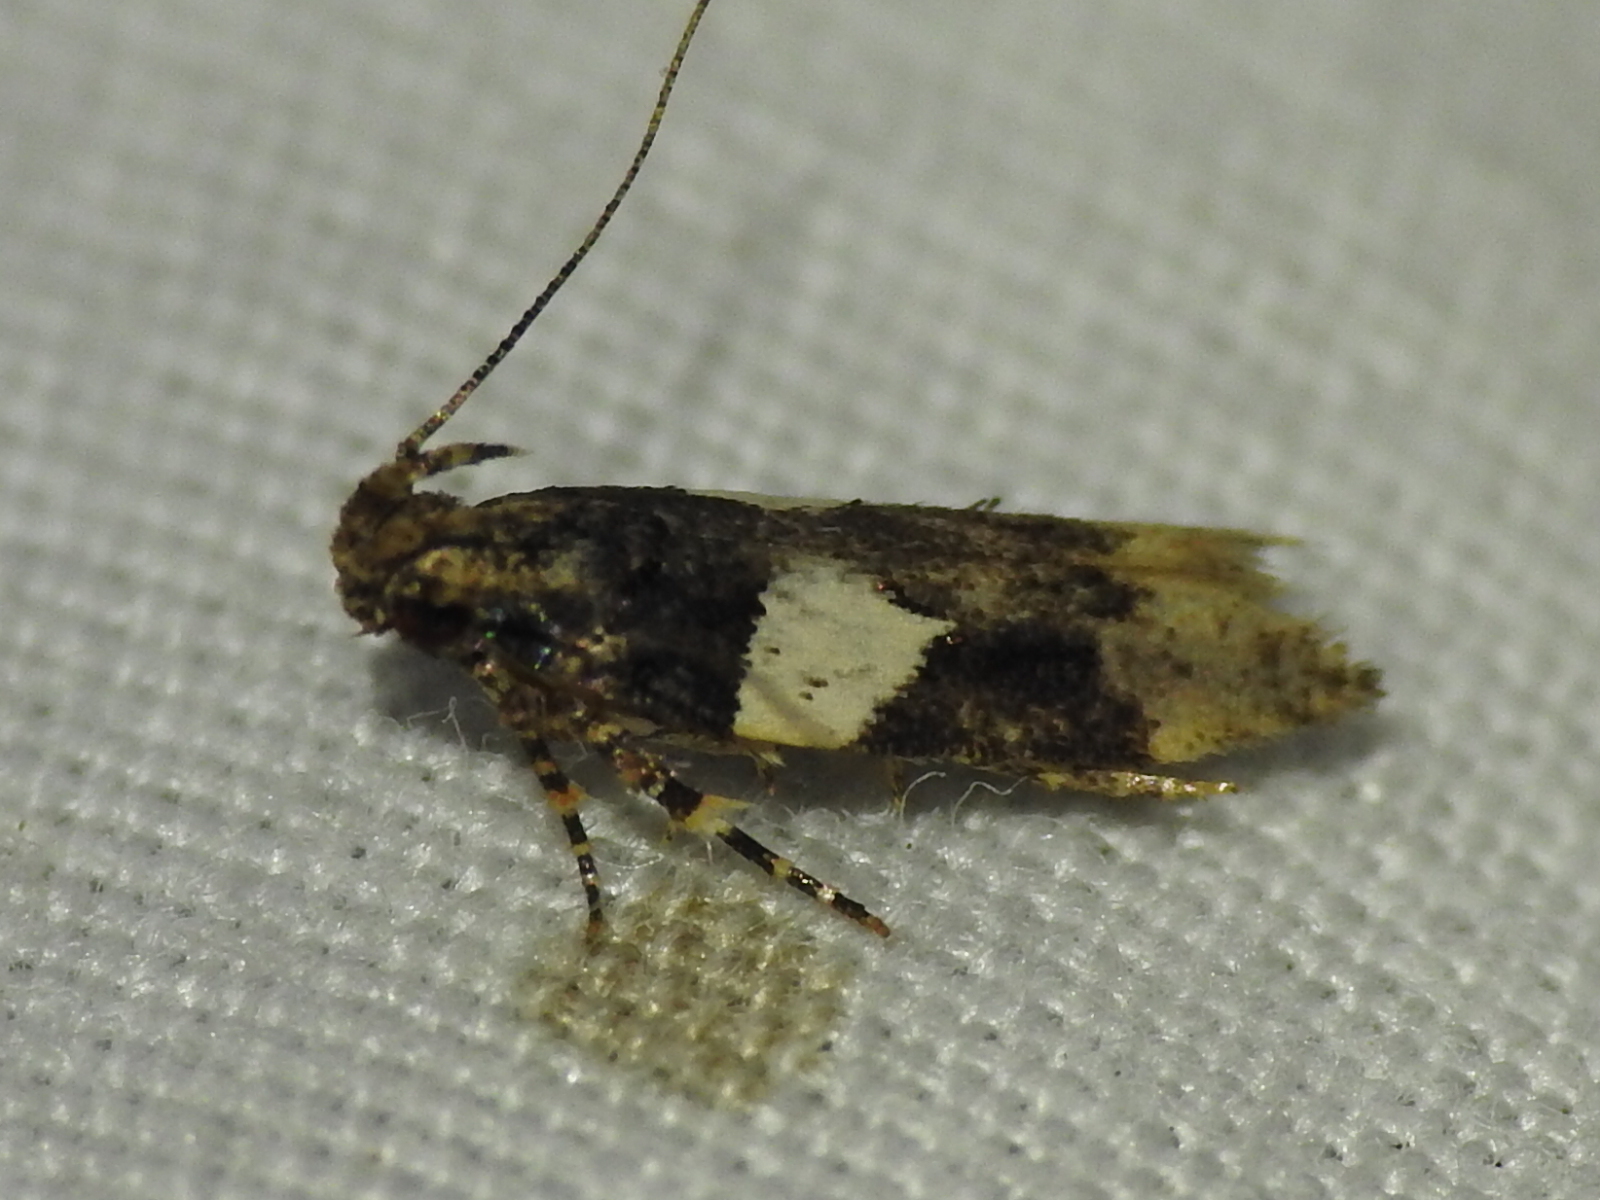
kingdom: Animalia
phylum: Arthropoda
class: Insecta
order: Lepidoptera
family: Gelechiidae
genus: Friseria
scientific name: Friseria acaciella
